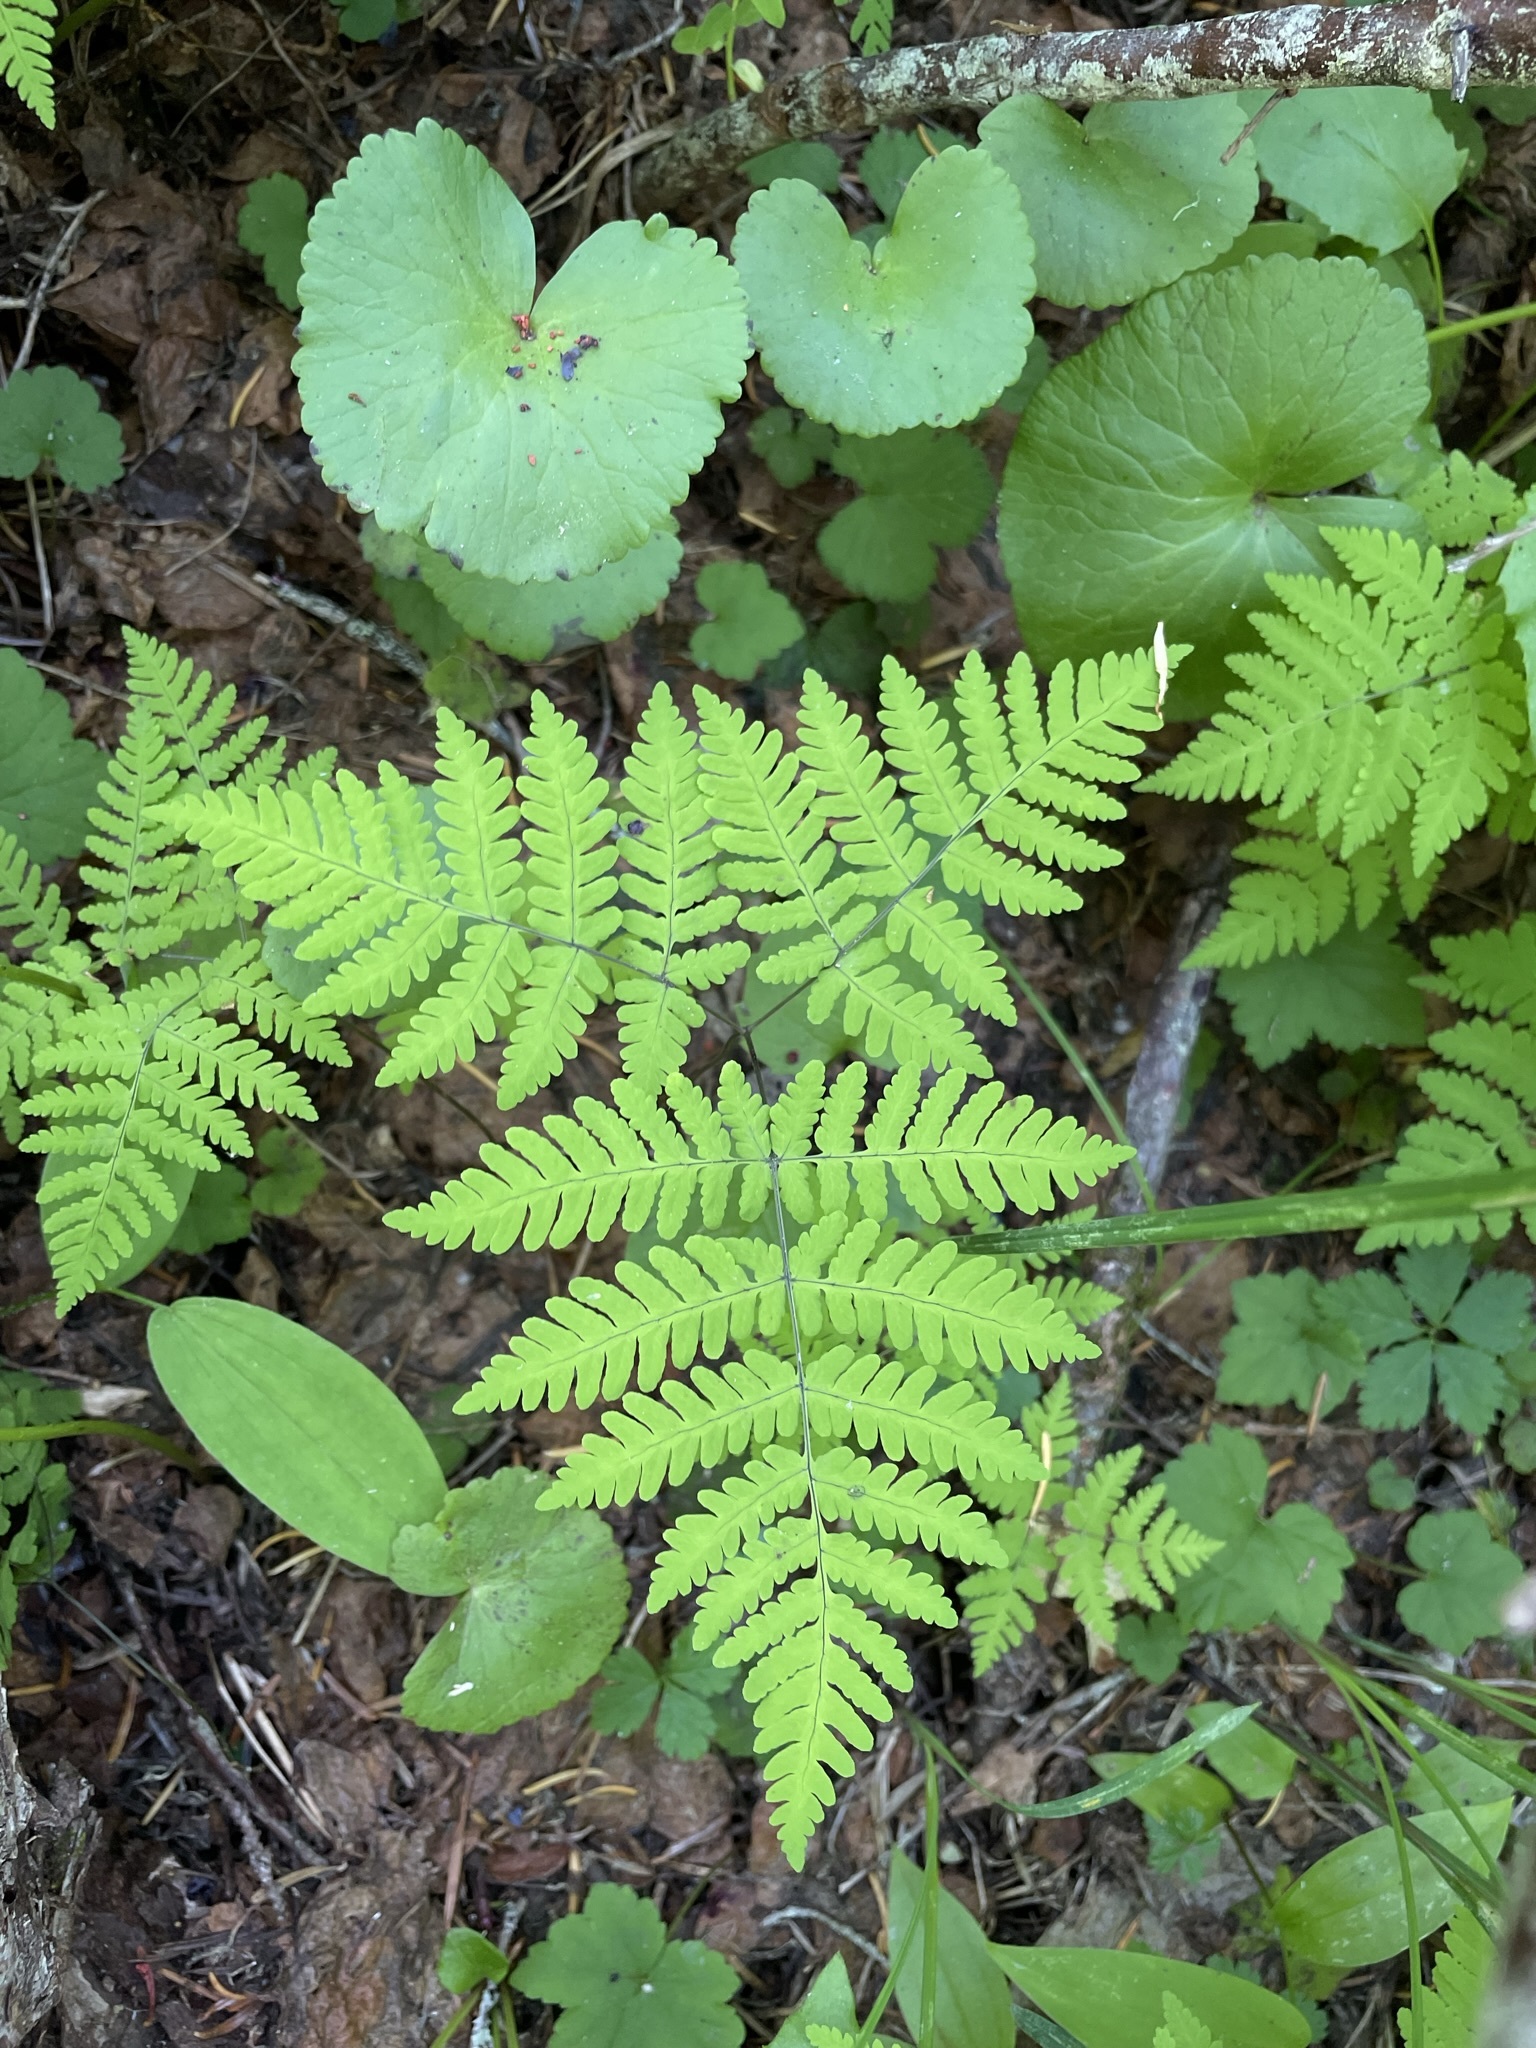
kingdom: Plantae
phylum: Tracheophyta
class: Polypodiopsida
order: Polypodiales
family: Cystopteridaceae
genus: Gymnocarpium
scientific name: Gymnocarpium disjunctum
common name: Western oak fern
